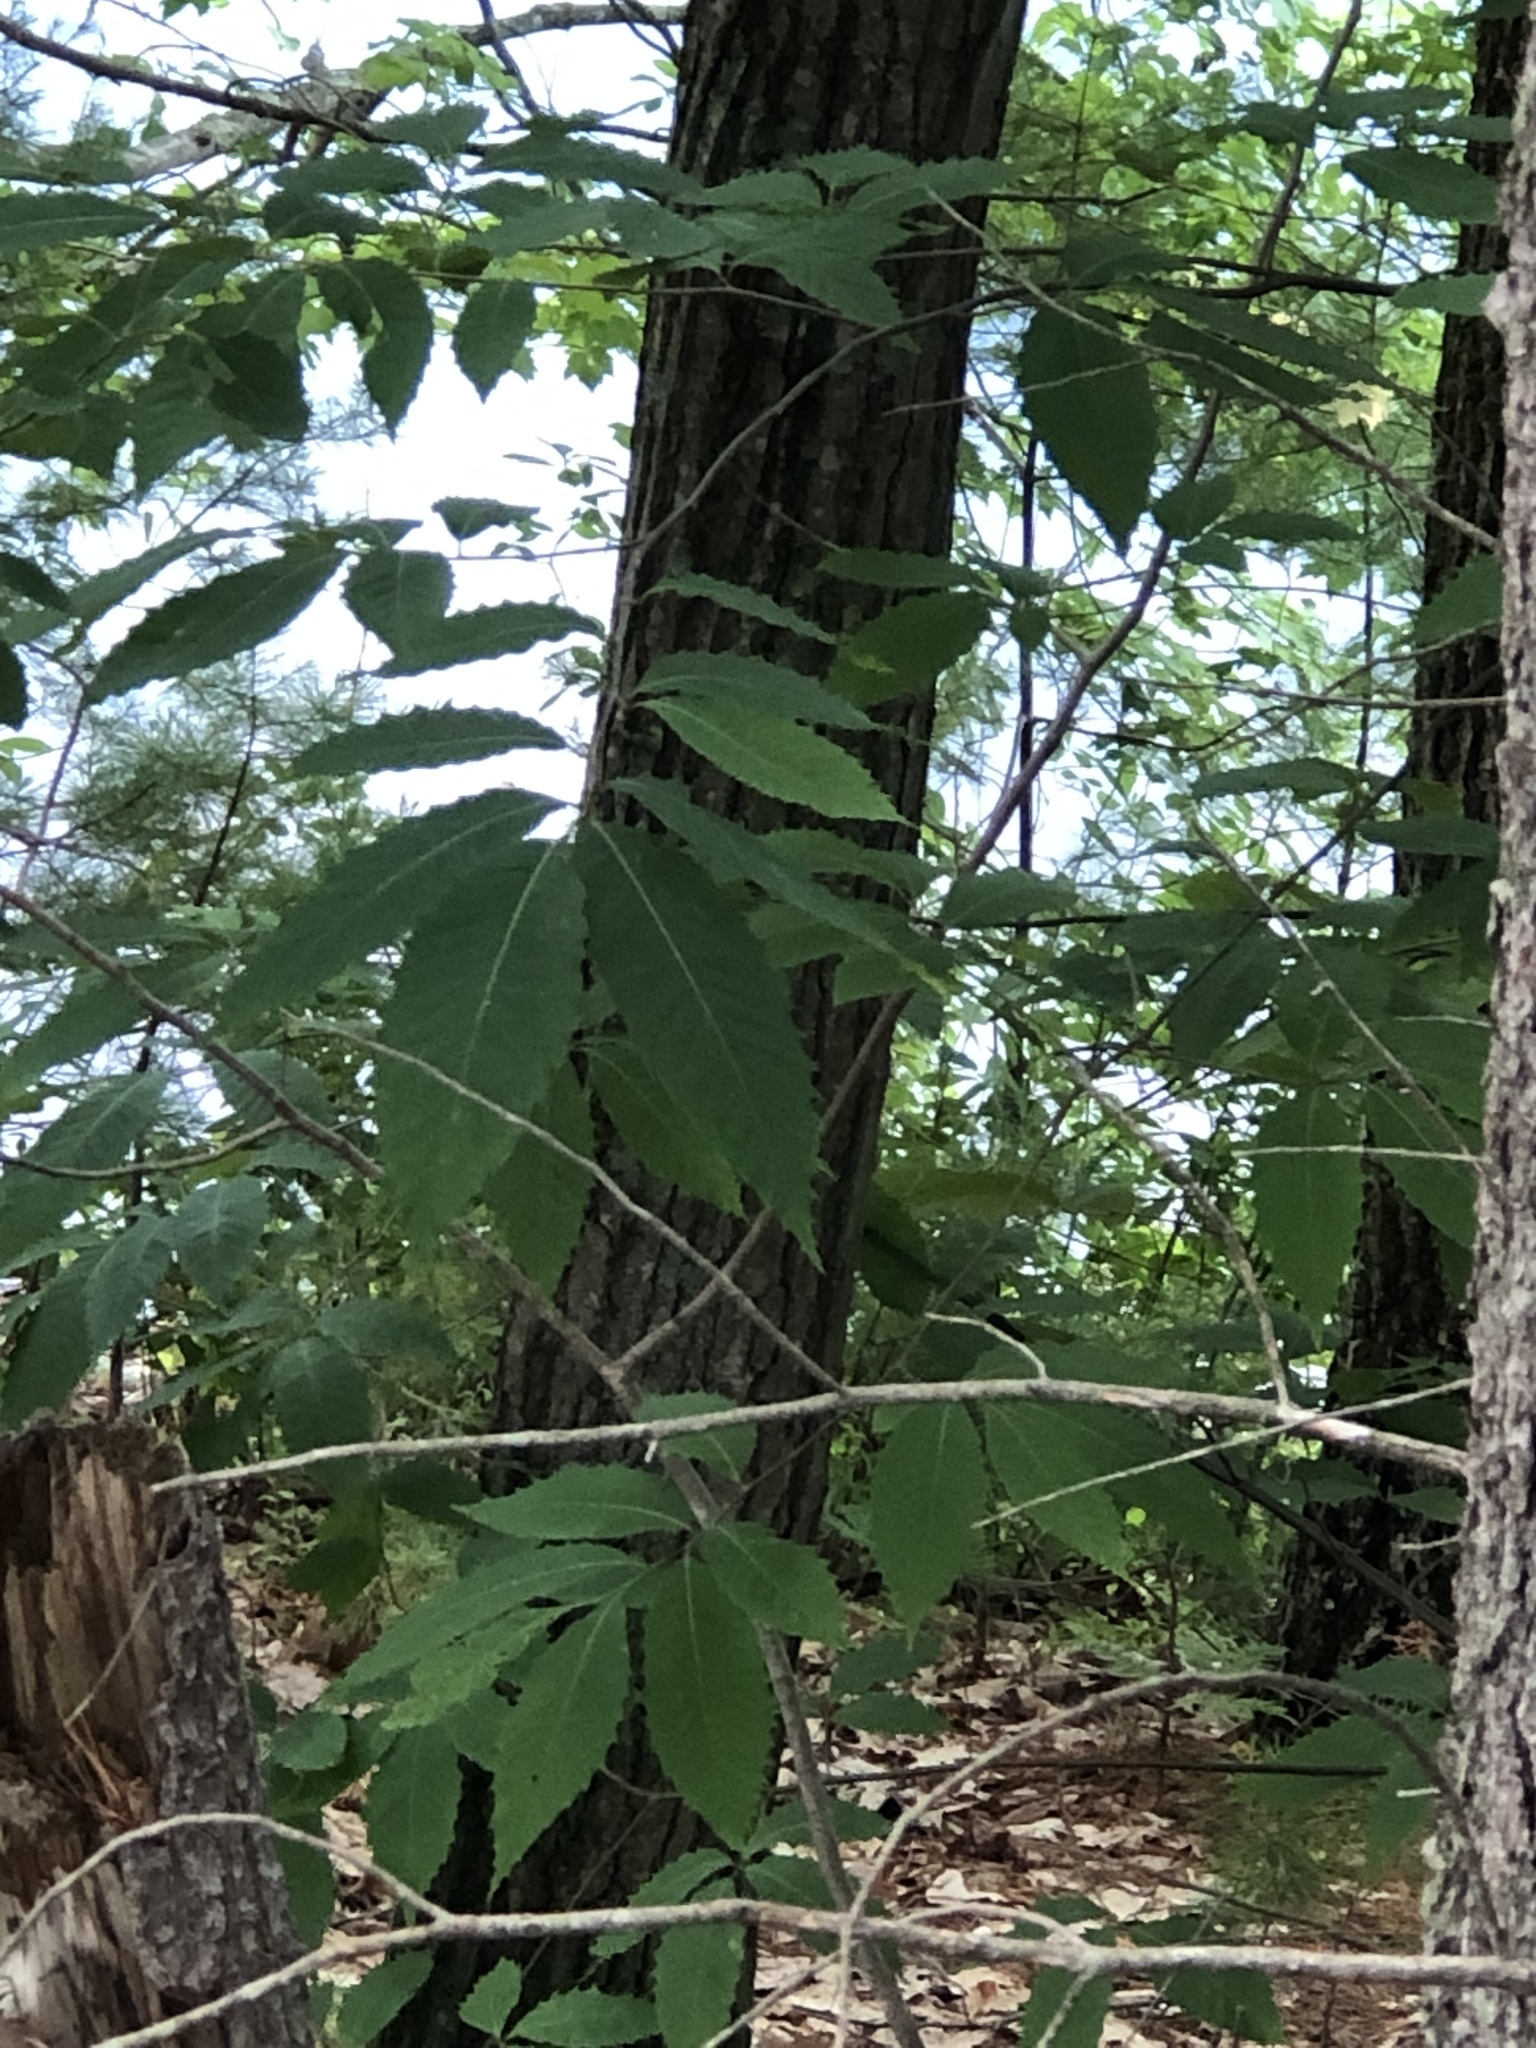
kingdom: Plantae
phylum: Tracheophyta
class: Magnoliopsida
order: Fagales
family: Fagaceae
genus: Castanea
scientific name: Castanea dentata
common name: American chestnut
